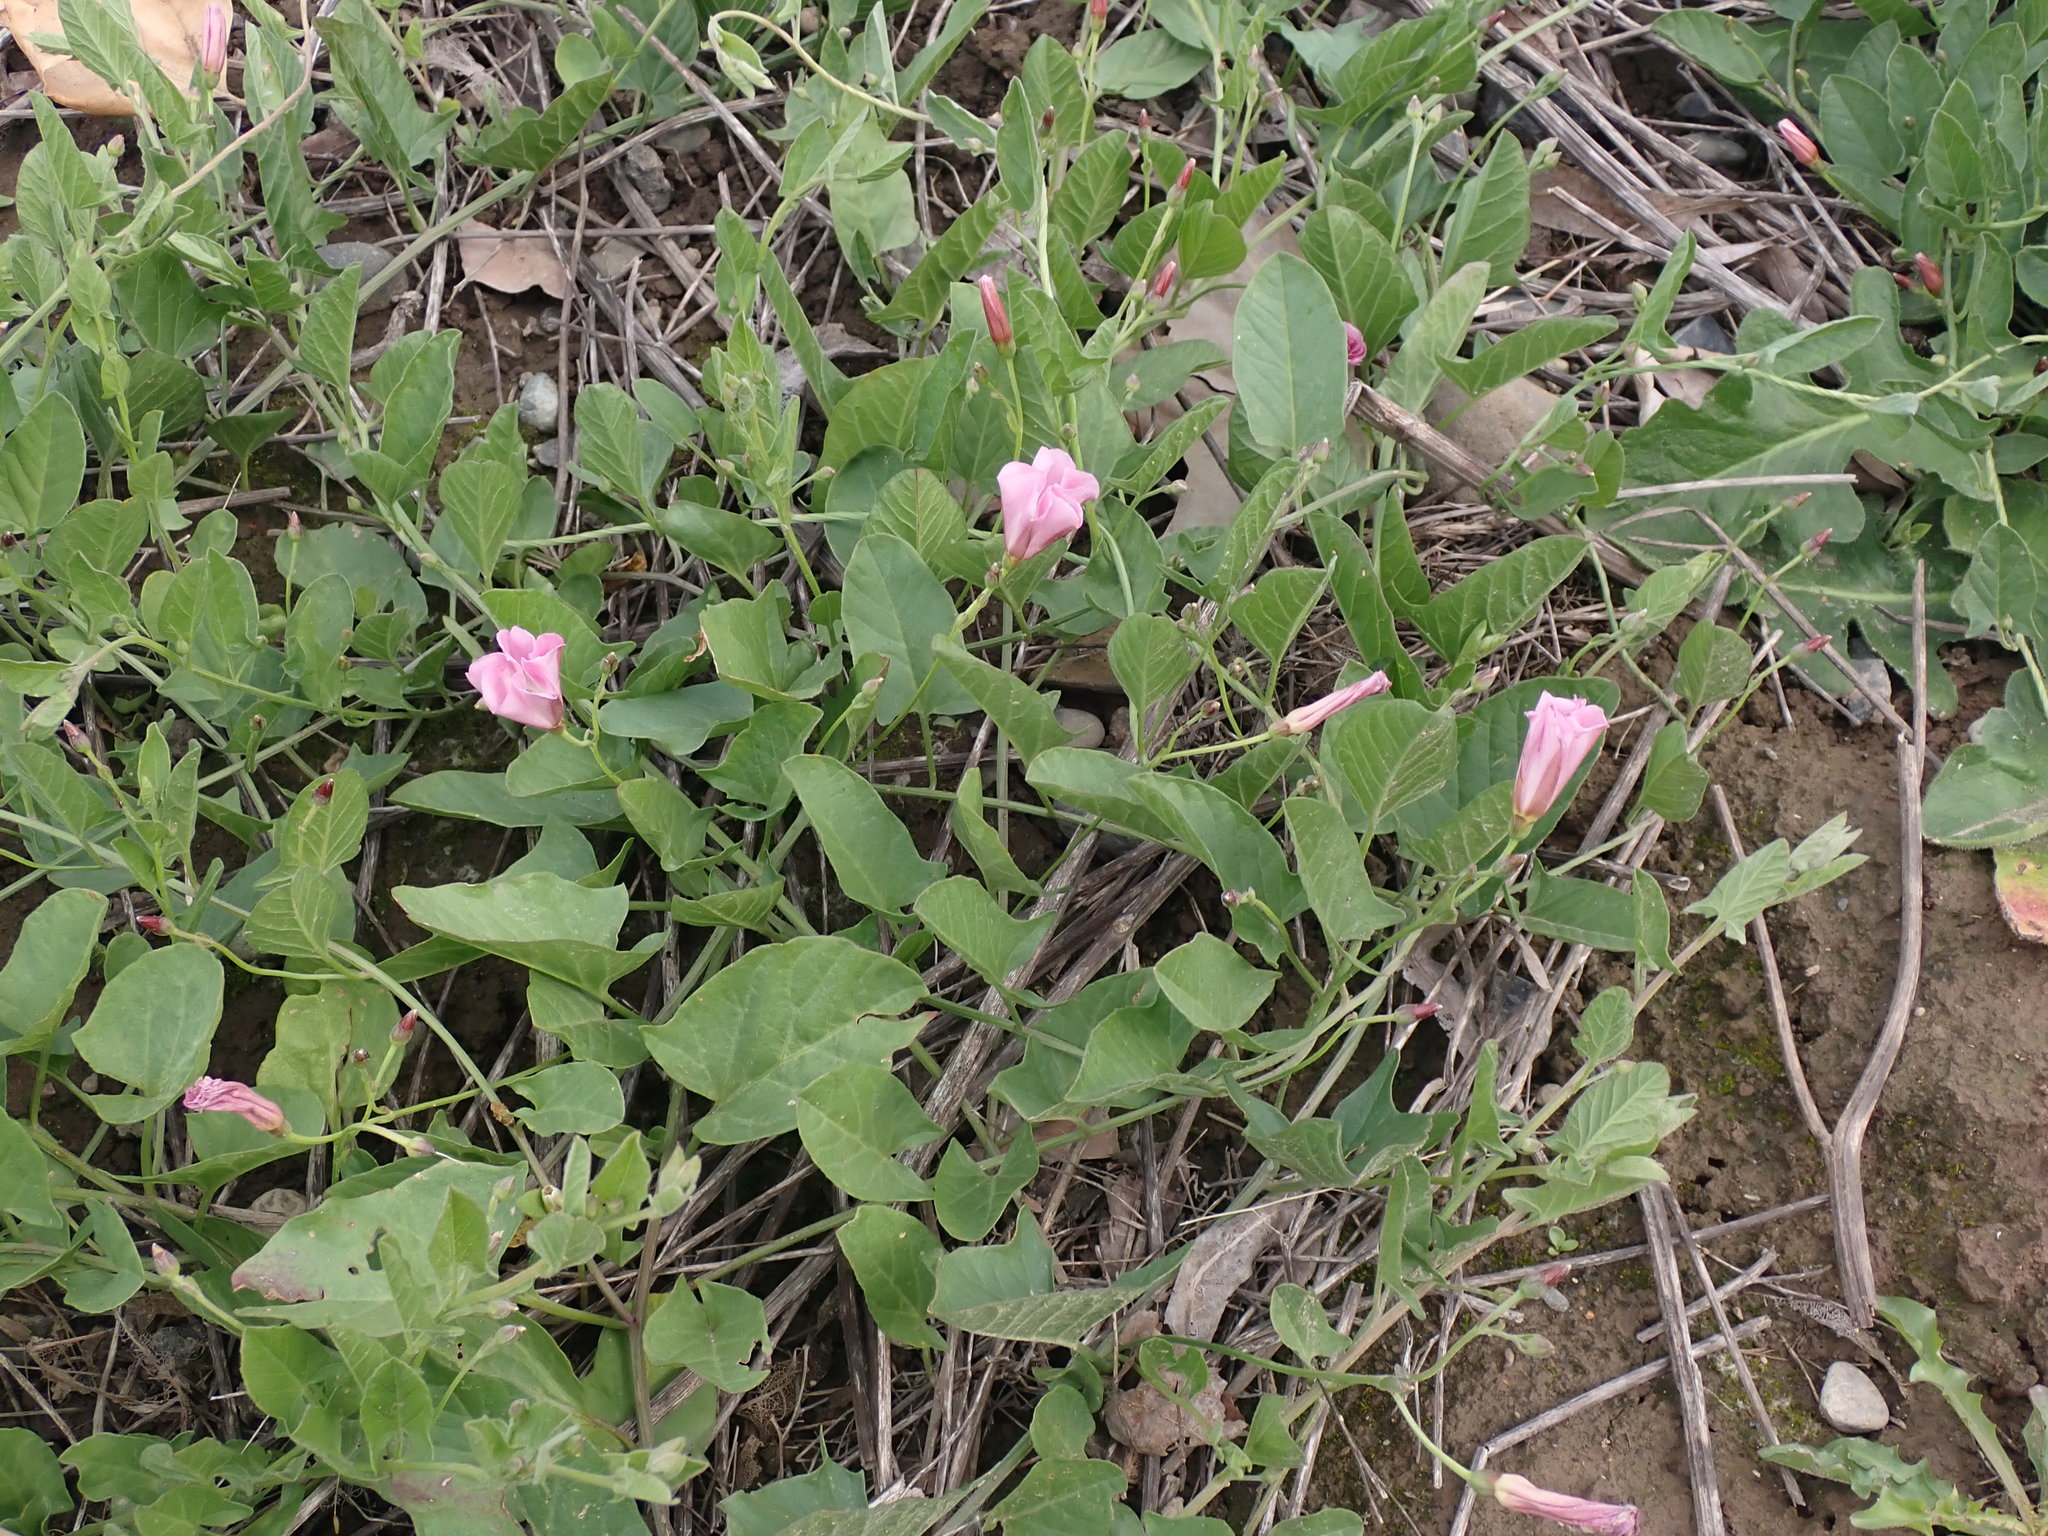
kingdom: Plantae
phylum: Tracheophyta
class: Magnoliopsida
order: Solanales
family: Convolvulaceae
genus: Convolvulus
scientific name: Convolvulus arvensis
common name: Field bindweed
